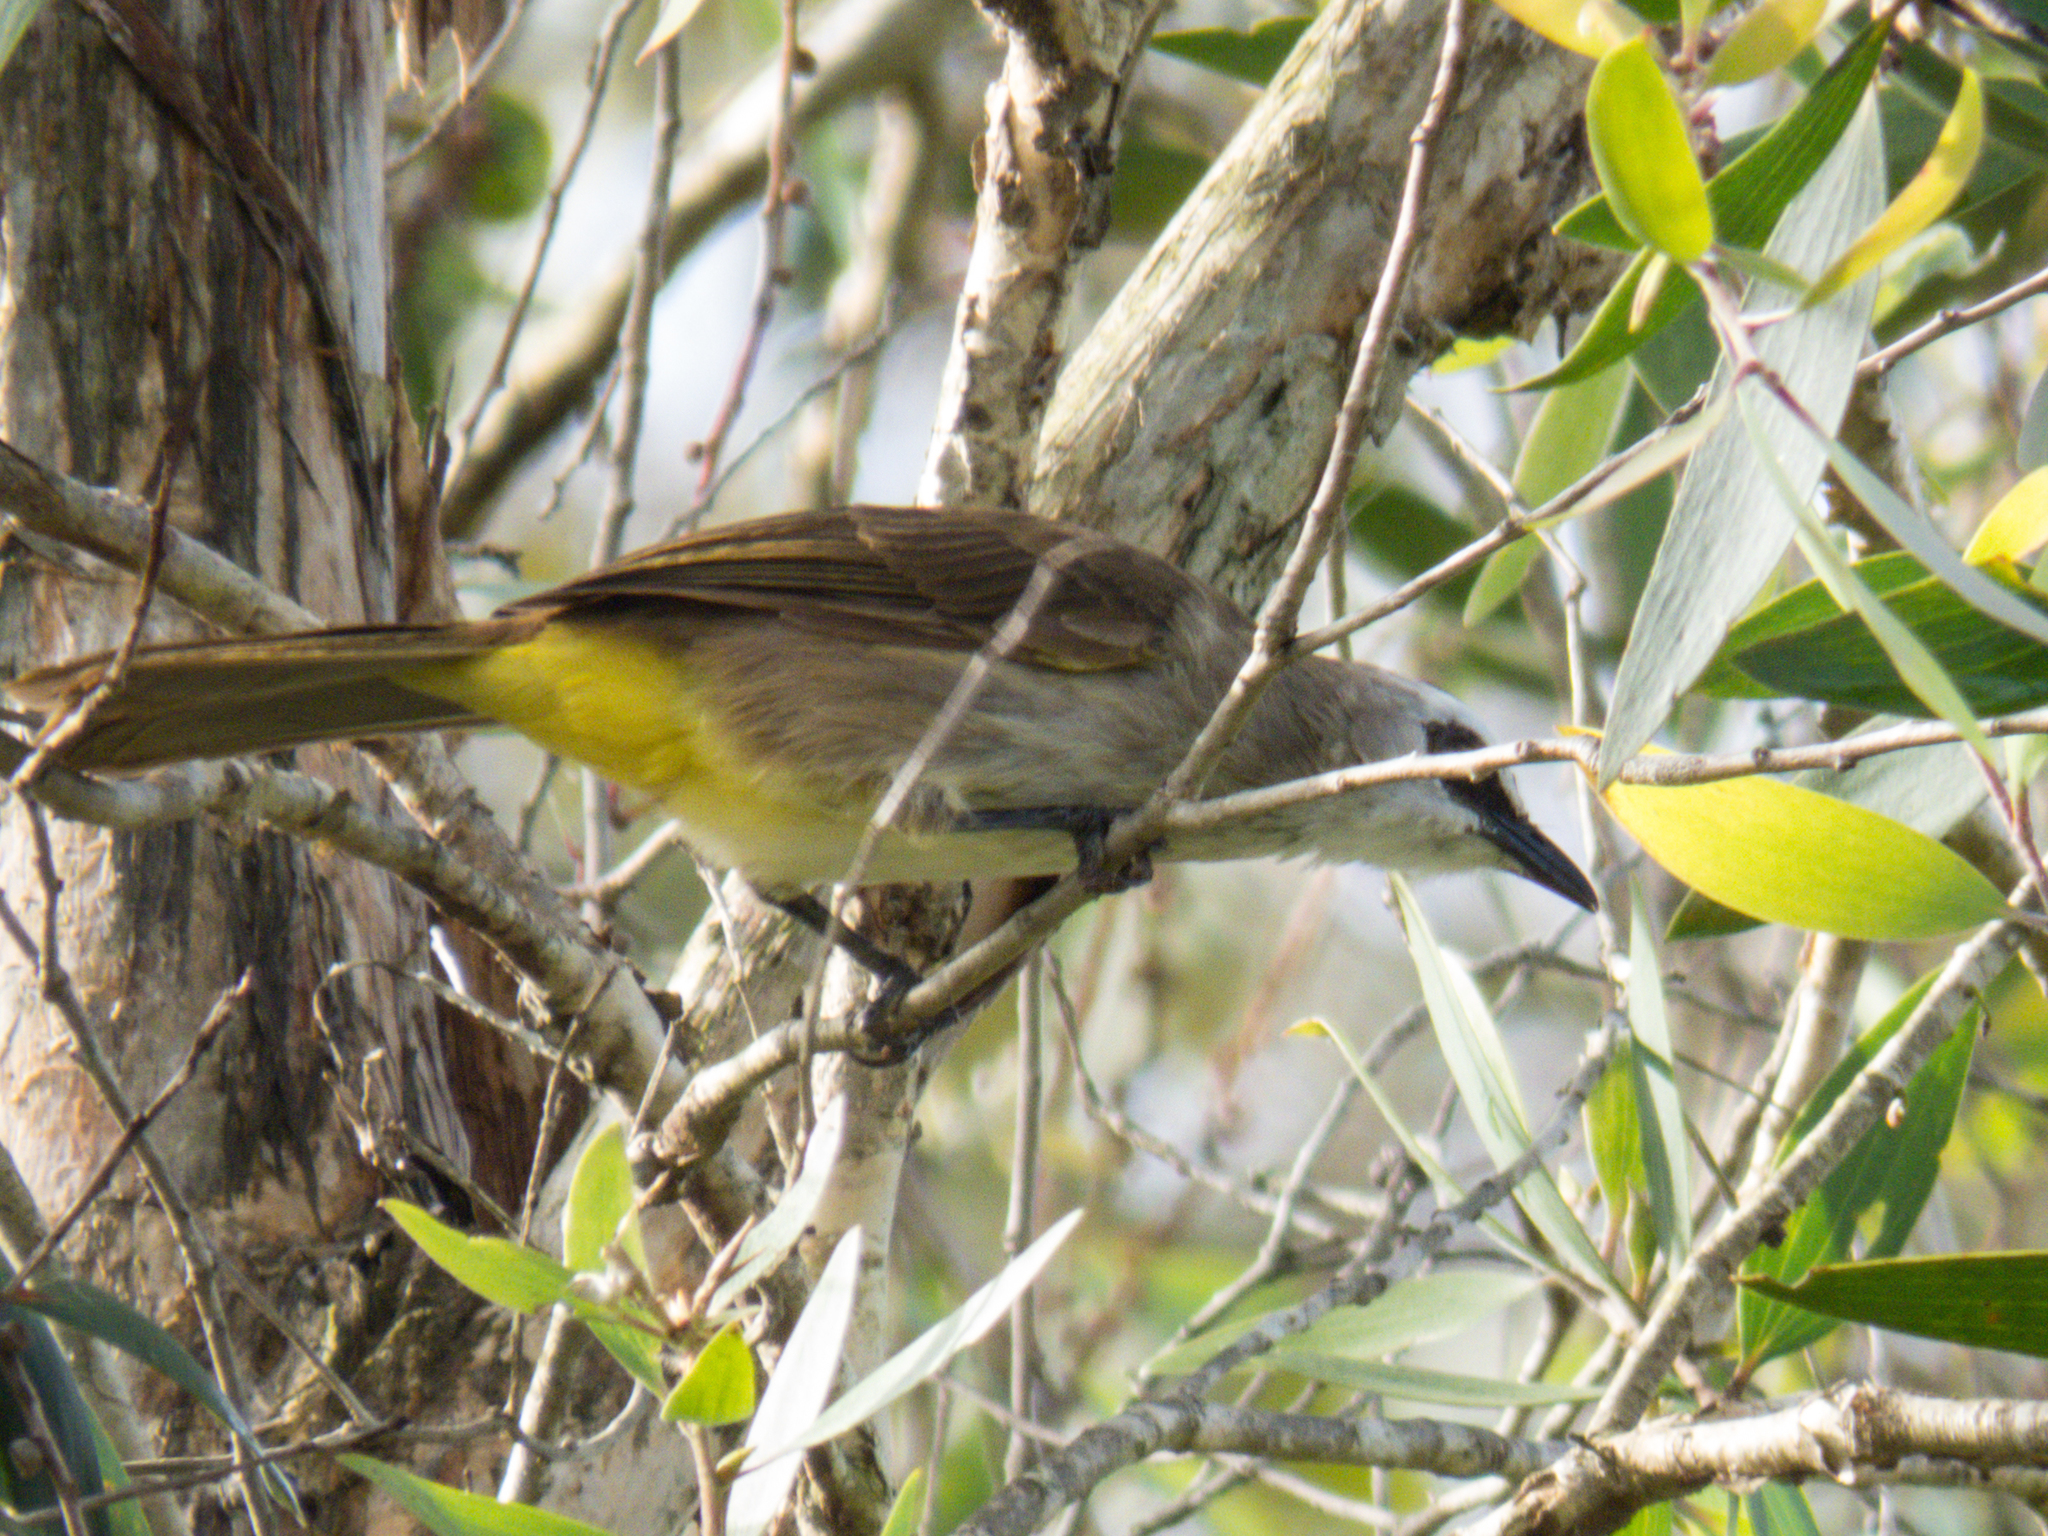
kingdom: Animalia
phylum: Chordata
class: Aves
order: Passeriformes
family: Pycnonotidae
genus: Pycnonotus
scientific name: Pycnonotus goiavier
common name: Yellow-vented bulbul
